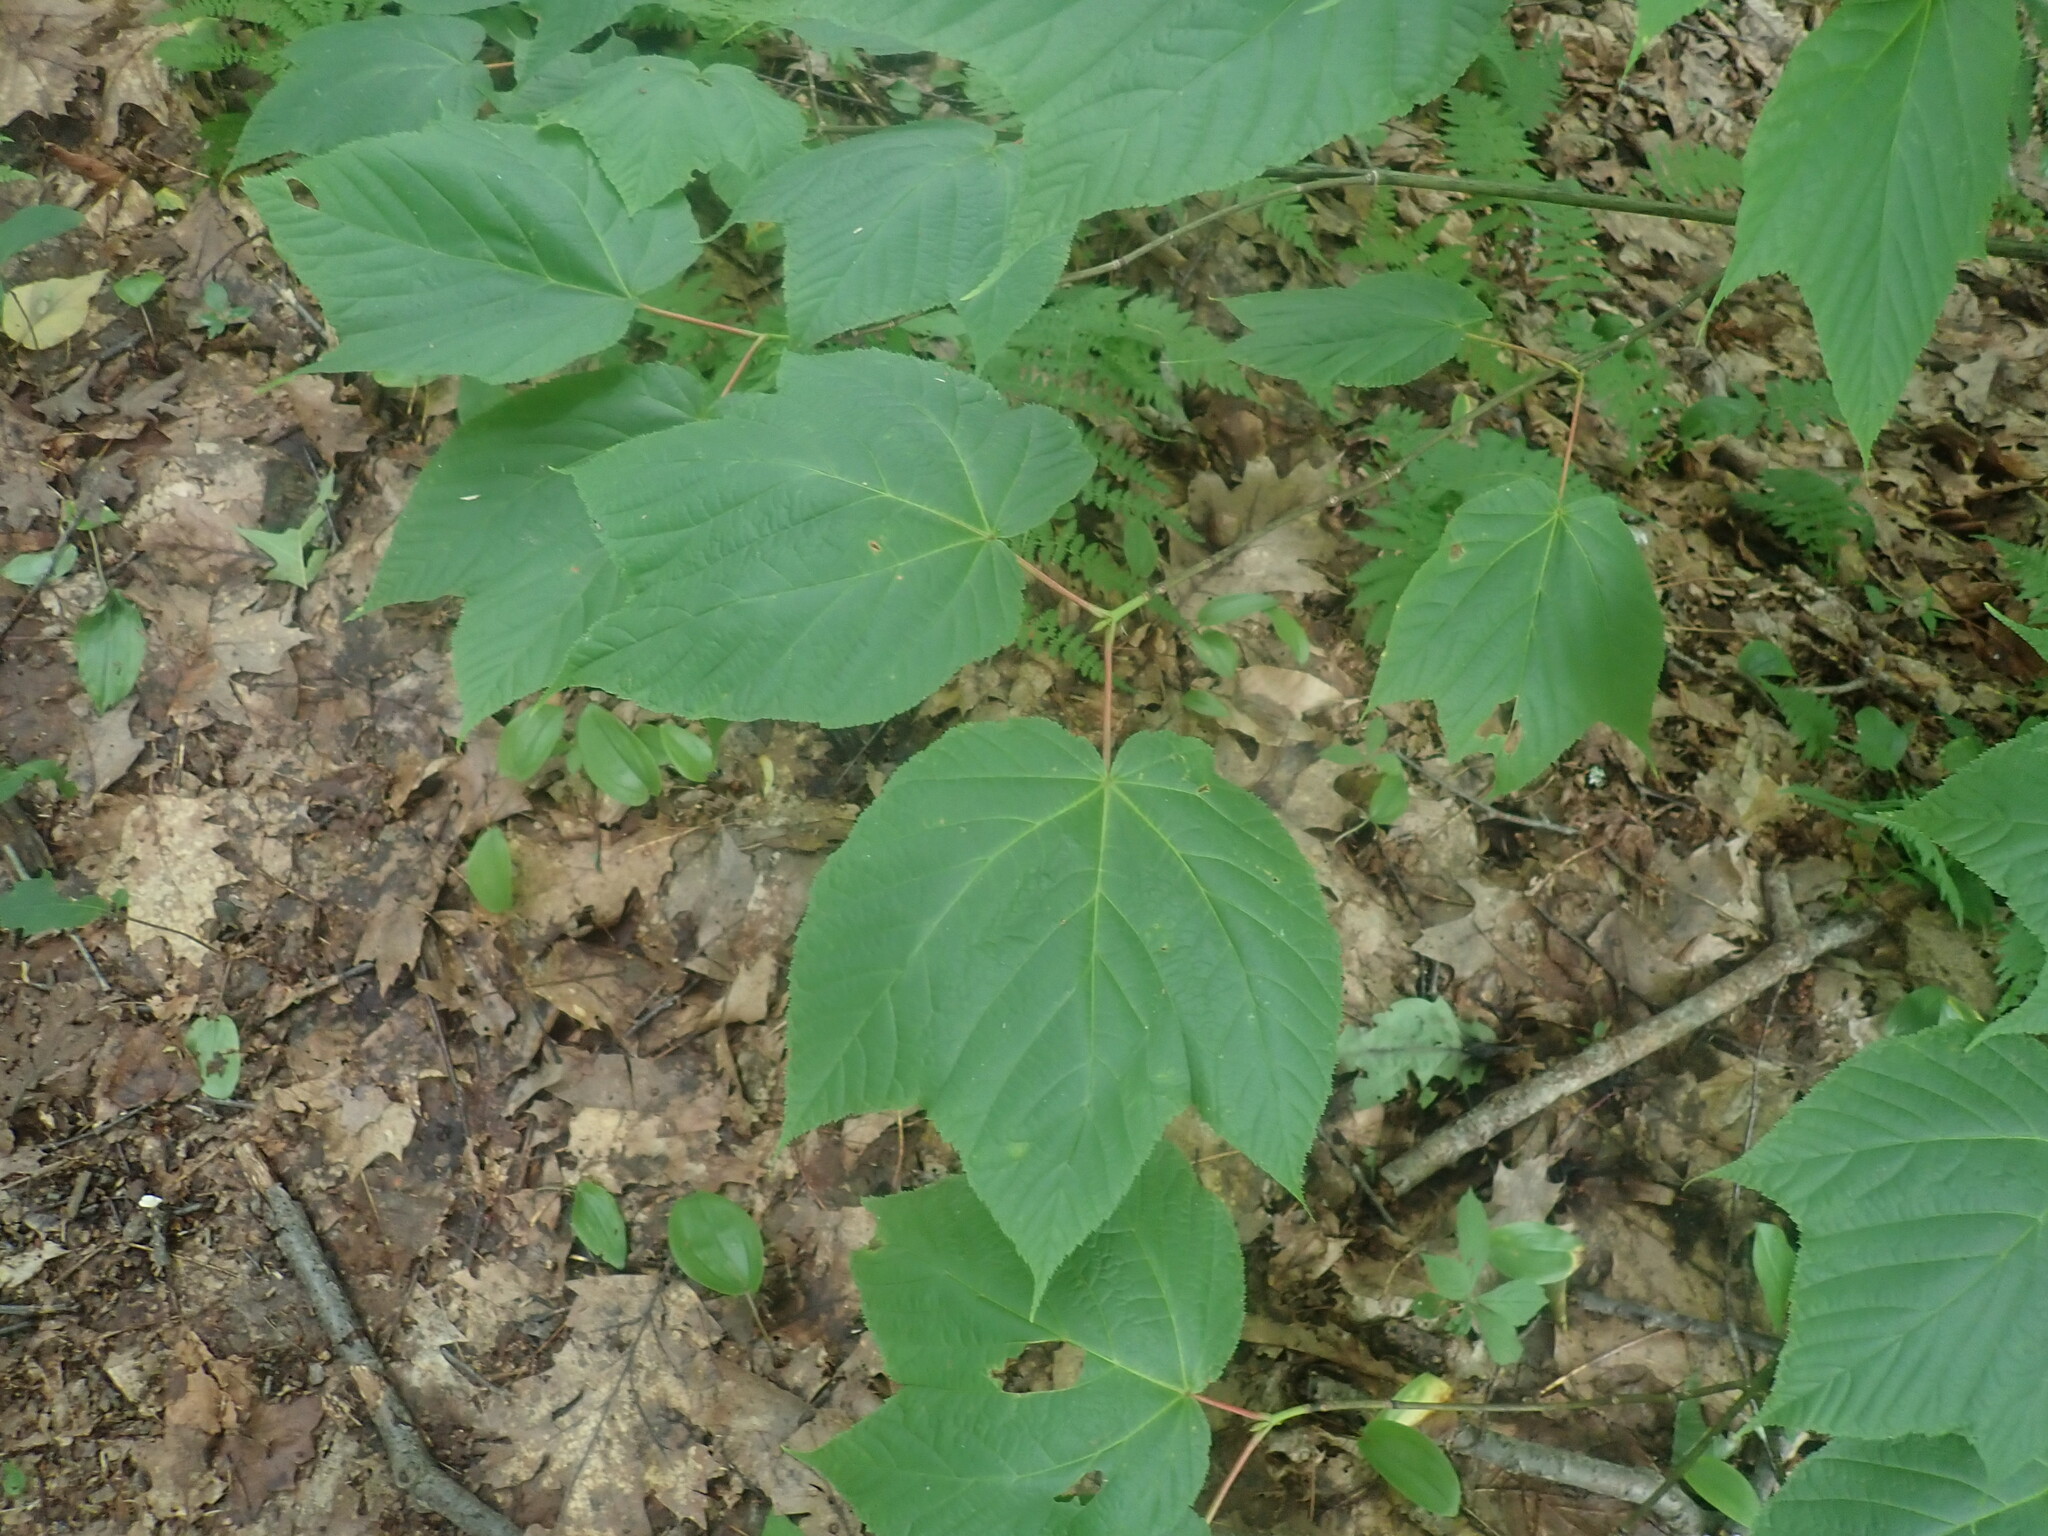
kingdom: Plantae
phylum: Tracheophyta
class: Magnoliopsida
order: Sapindales
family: Sapindaceae
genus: Acer
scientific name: Acer pensylvanicum
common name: Moosewood
